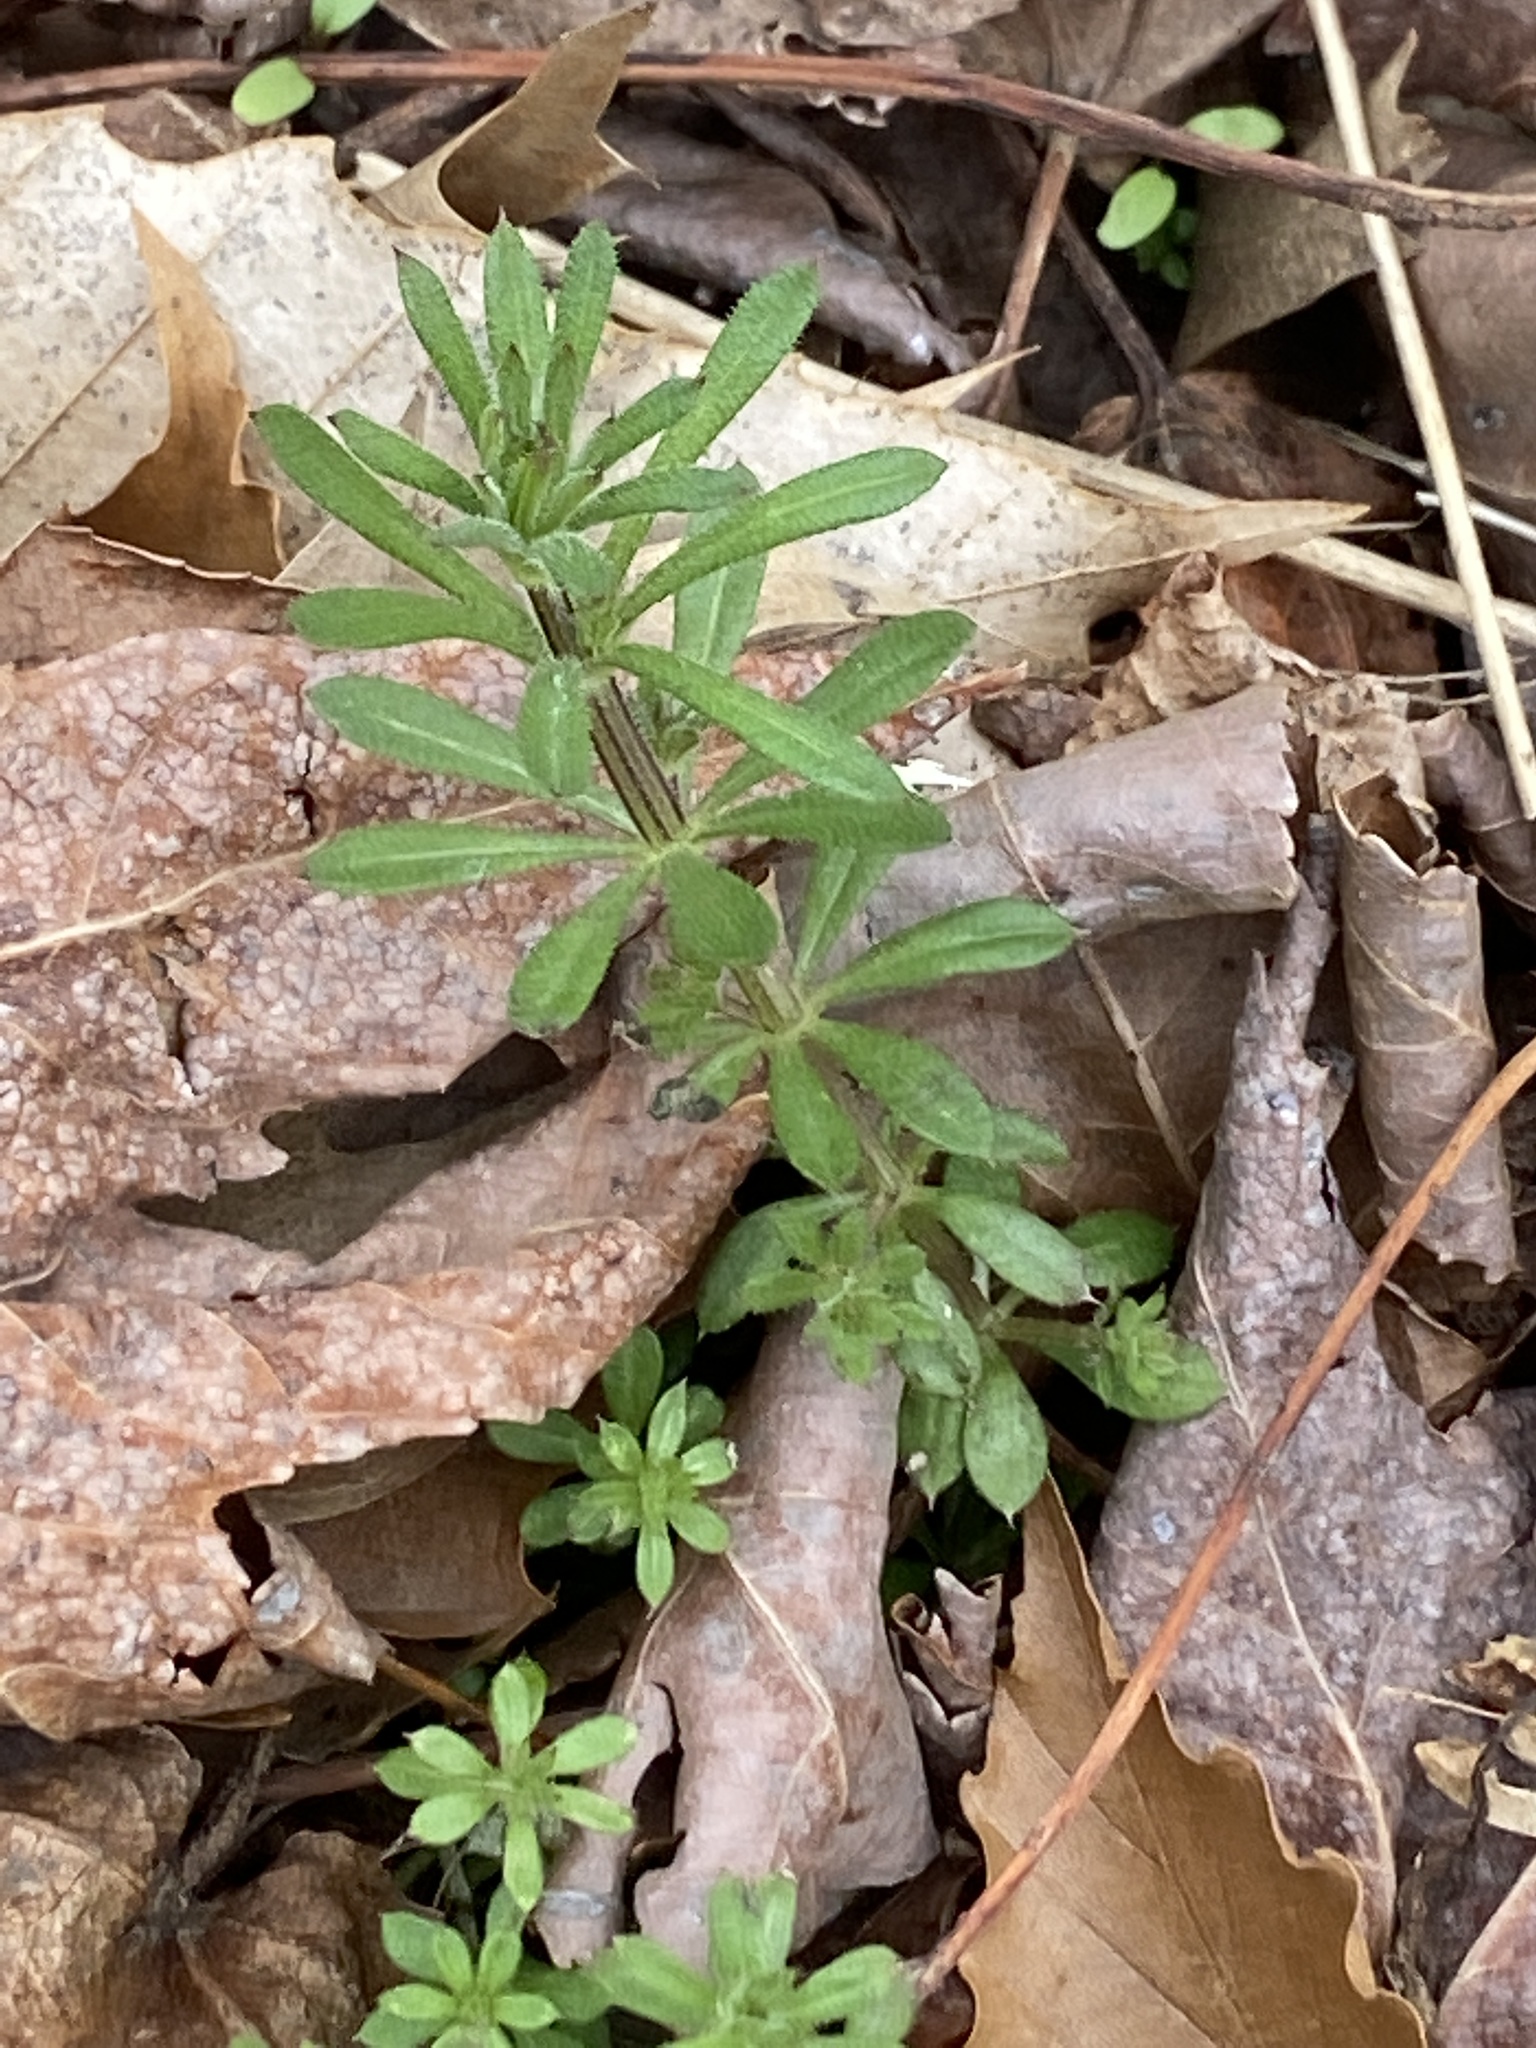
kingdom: Plantae
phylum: Tracheophyta
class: Magnoliopsida
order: Gentianales
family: Rubiaceae
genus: Galium
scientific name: Galium aparine
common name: Cleavers
